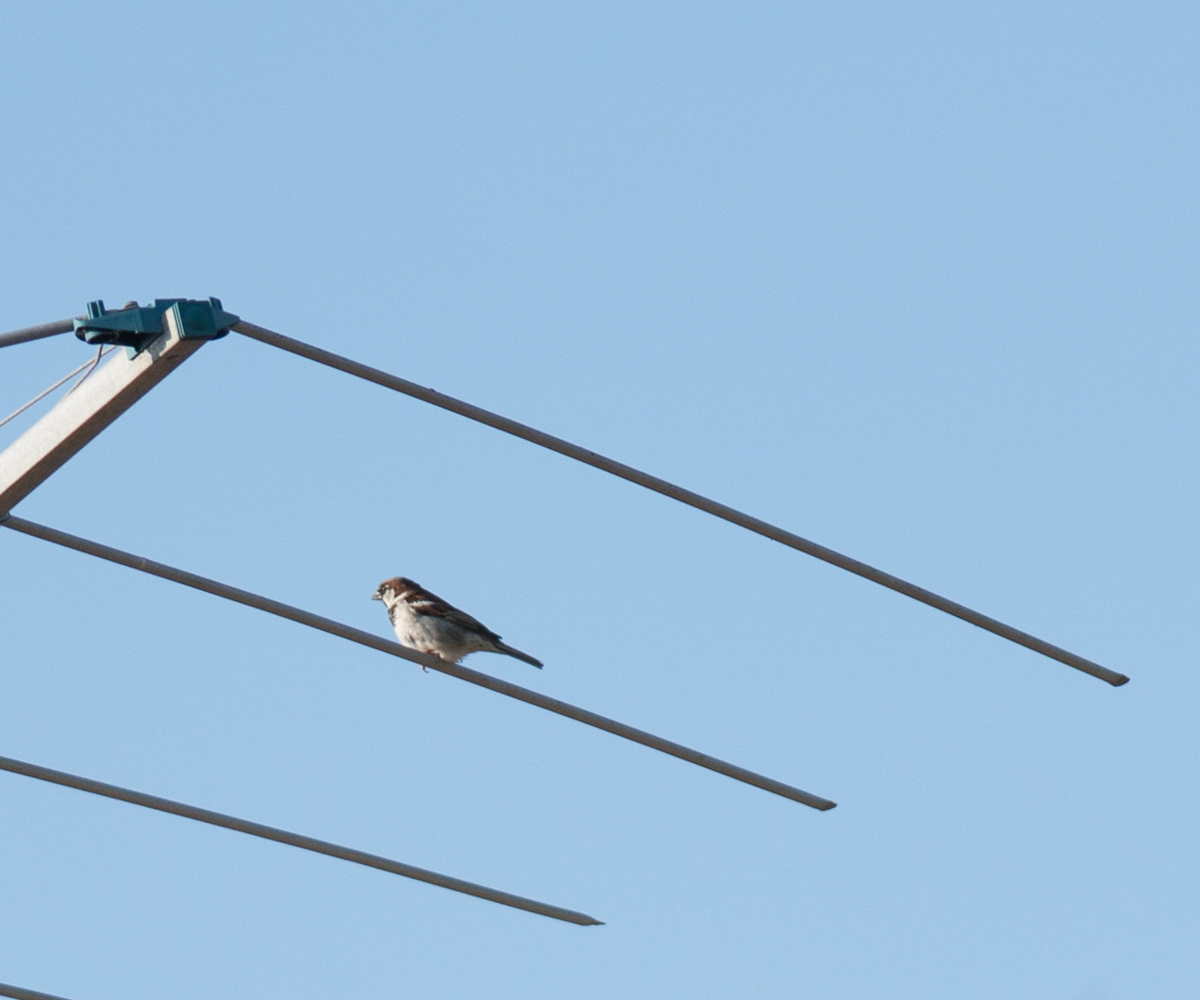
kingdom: Animalia
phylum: Chordata
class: Aves
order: Passeriformes
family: Passeridae
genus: Passer
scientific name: Passer domesticus
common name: House sparrow
